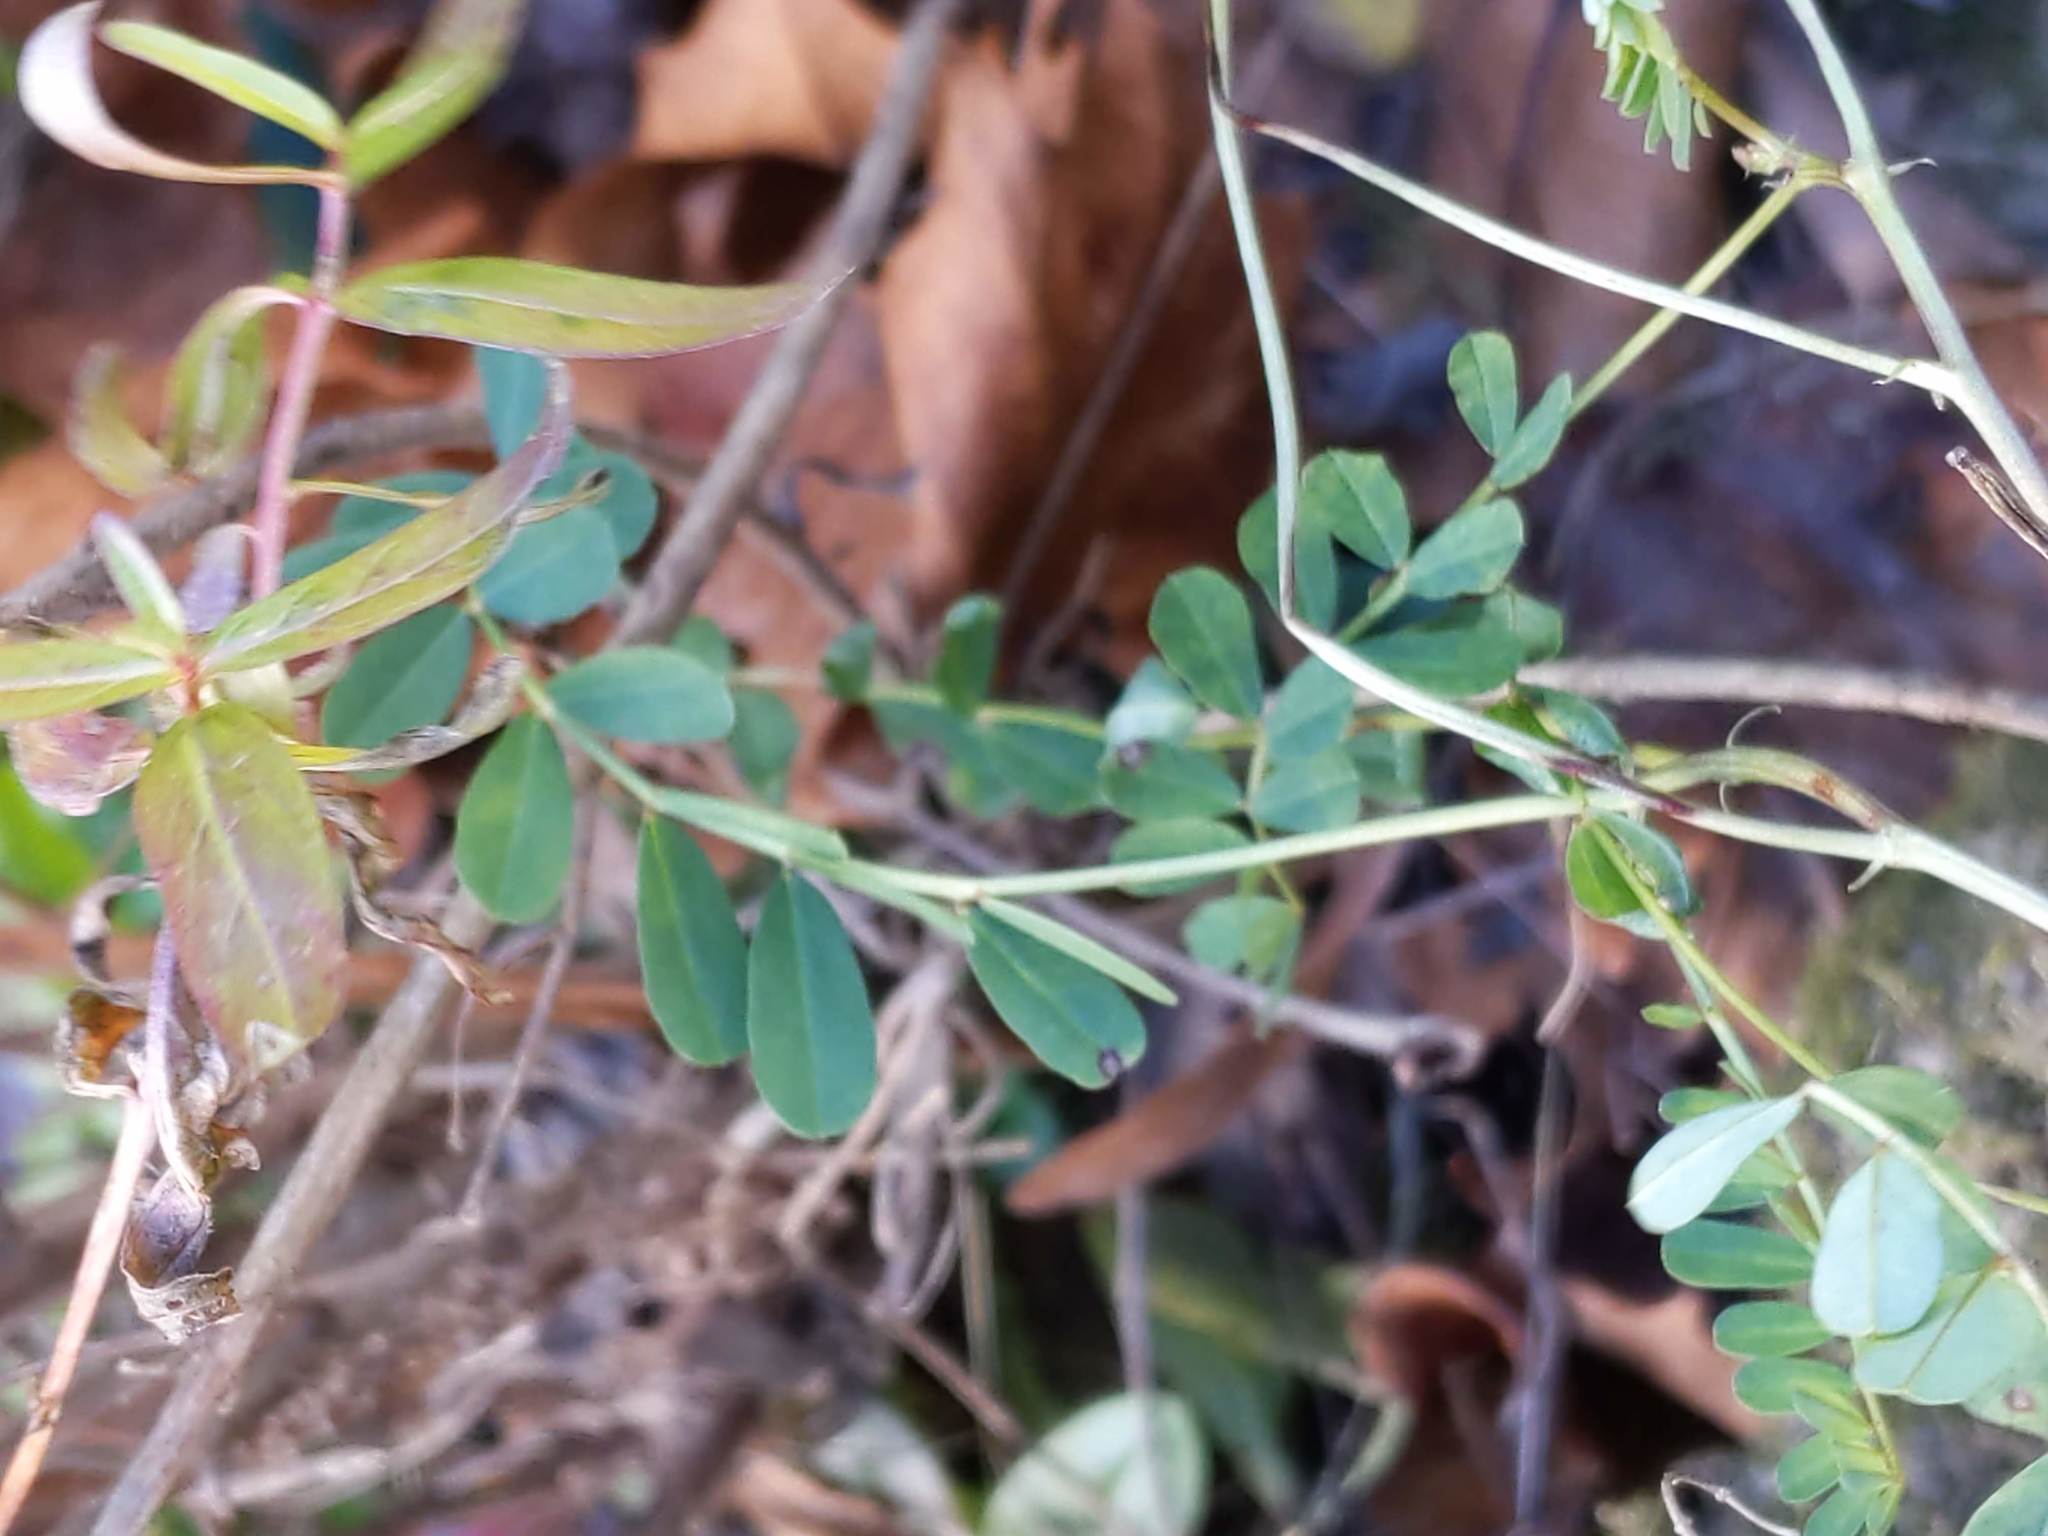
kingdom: Plantae
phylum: Tracheophyta
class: Magnoliopsida
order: Fabales
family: Fabaceae
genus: Coronilla
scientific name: Coronilla varia
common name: Crownvetch
